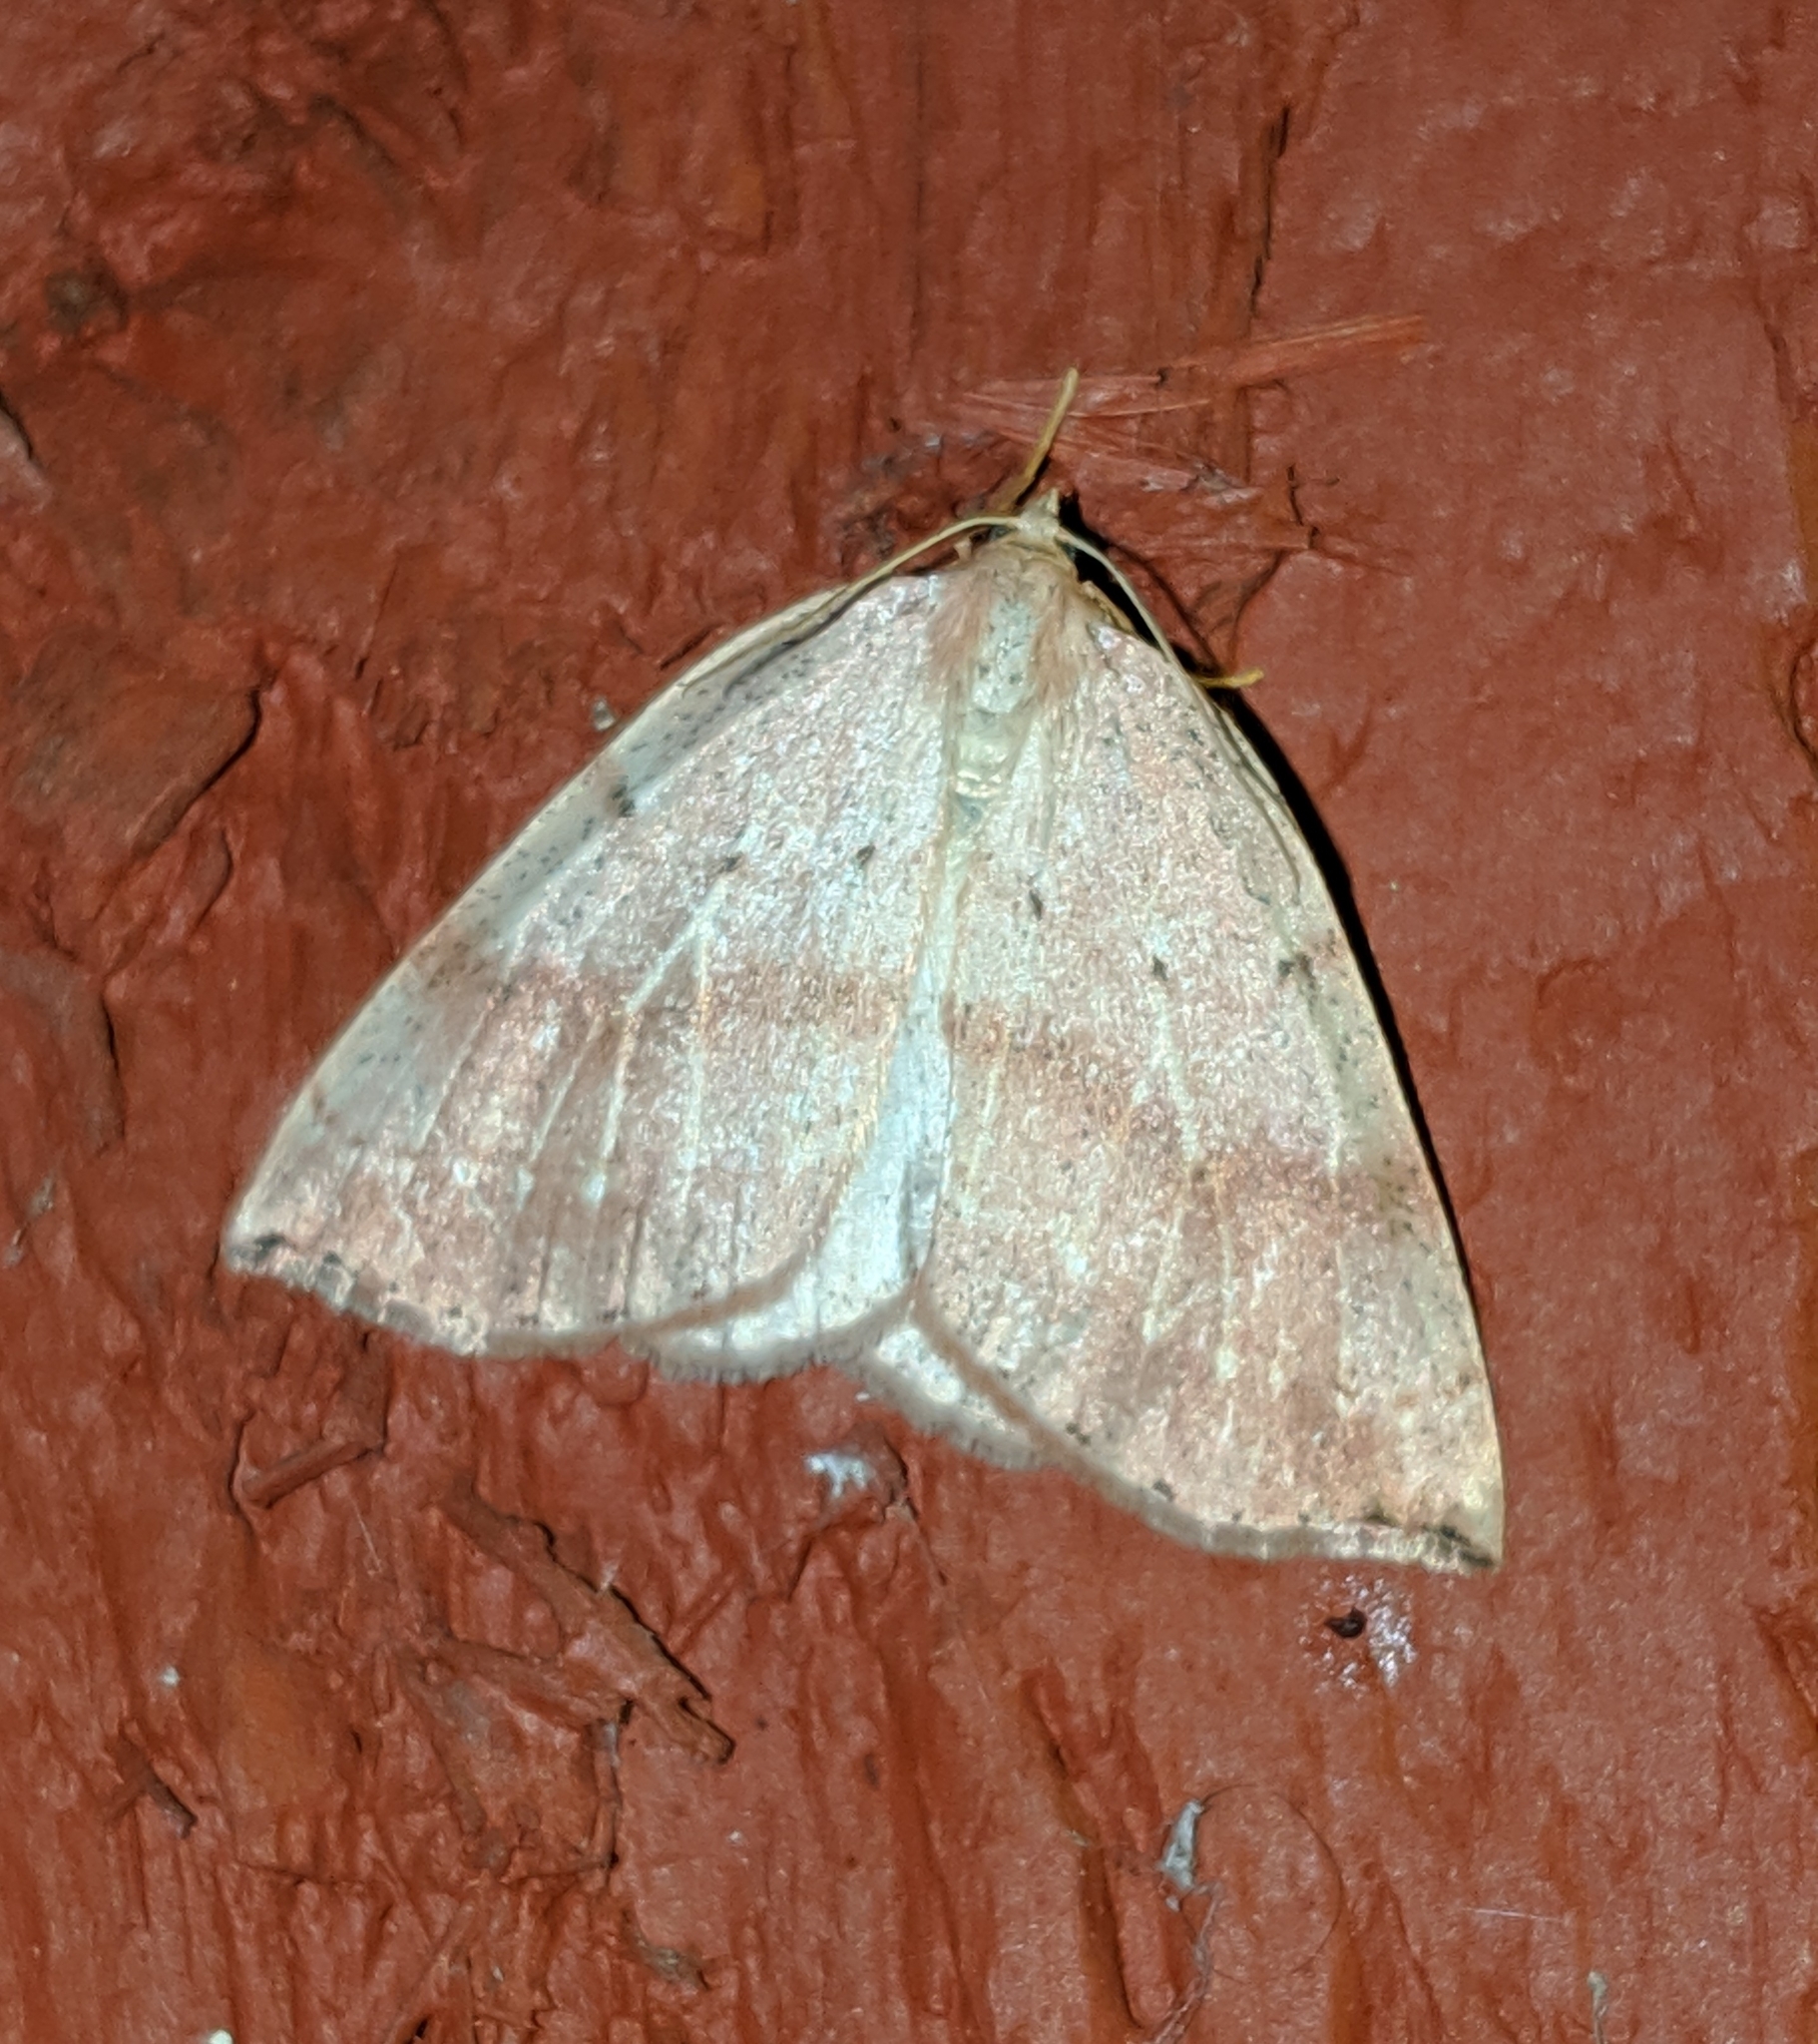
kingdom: Animalia
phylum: Arthropoda
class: Insecta
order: Lepidoptera
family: Geometridae
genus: Thallophaga
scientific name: Thallophaga hyperborea
